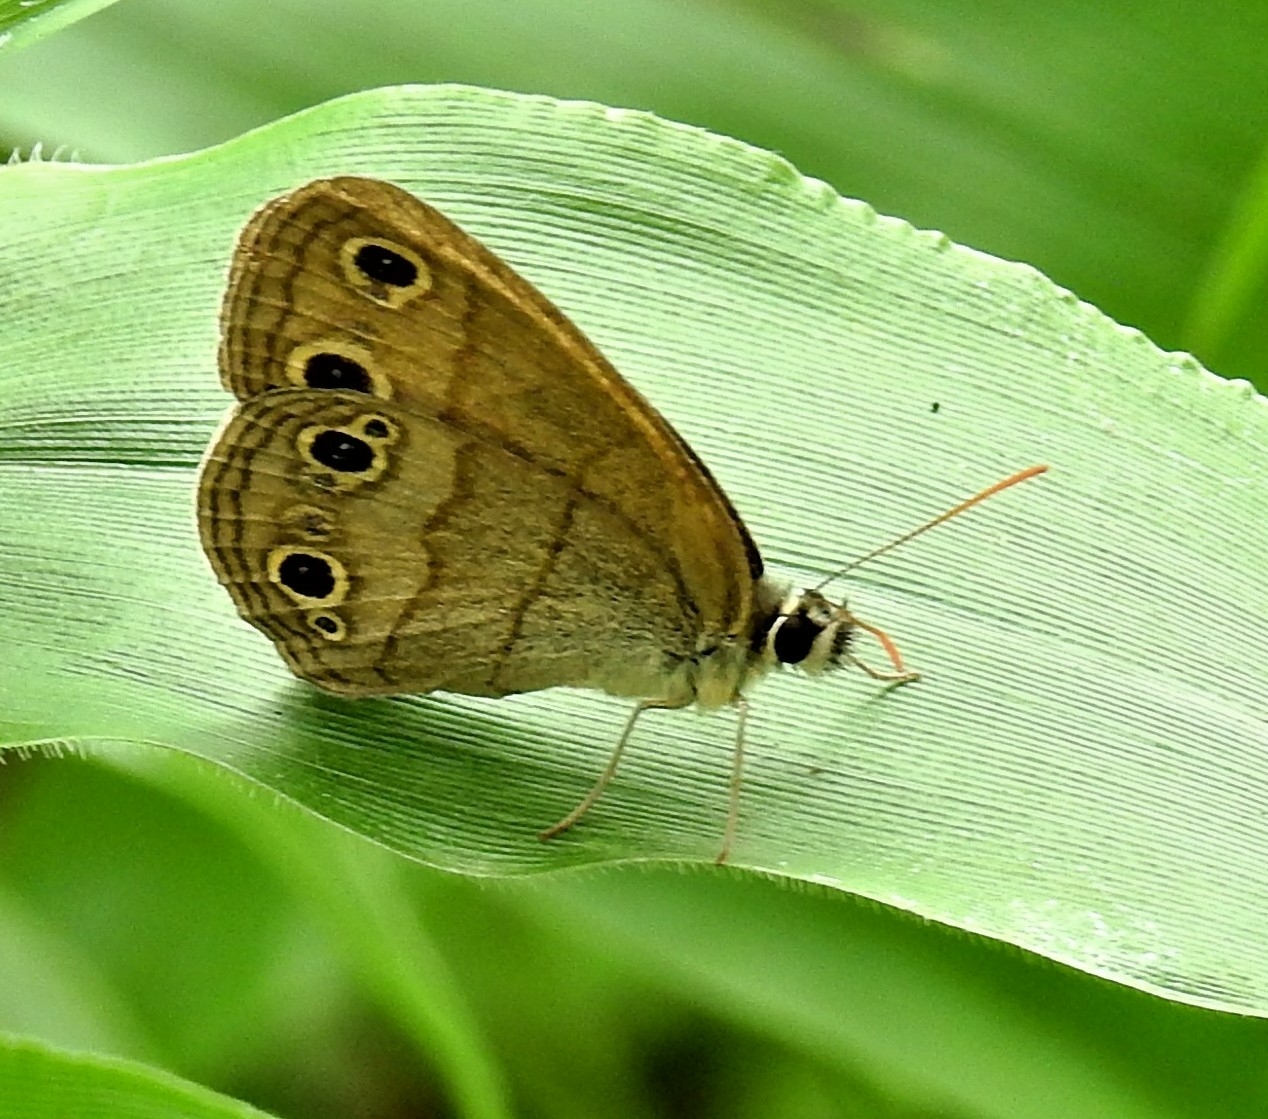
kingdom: Animalia
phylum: Arthropoda
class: Insecta
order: Lepidoptera
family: Nymphalidae
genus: Euptychia
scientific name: Euptychia cymela
